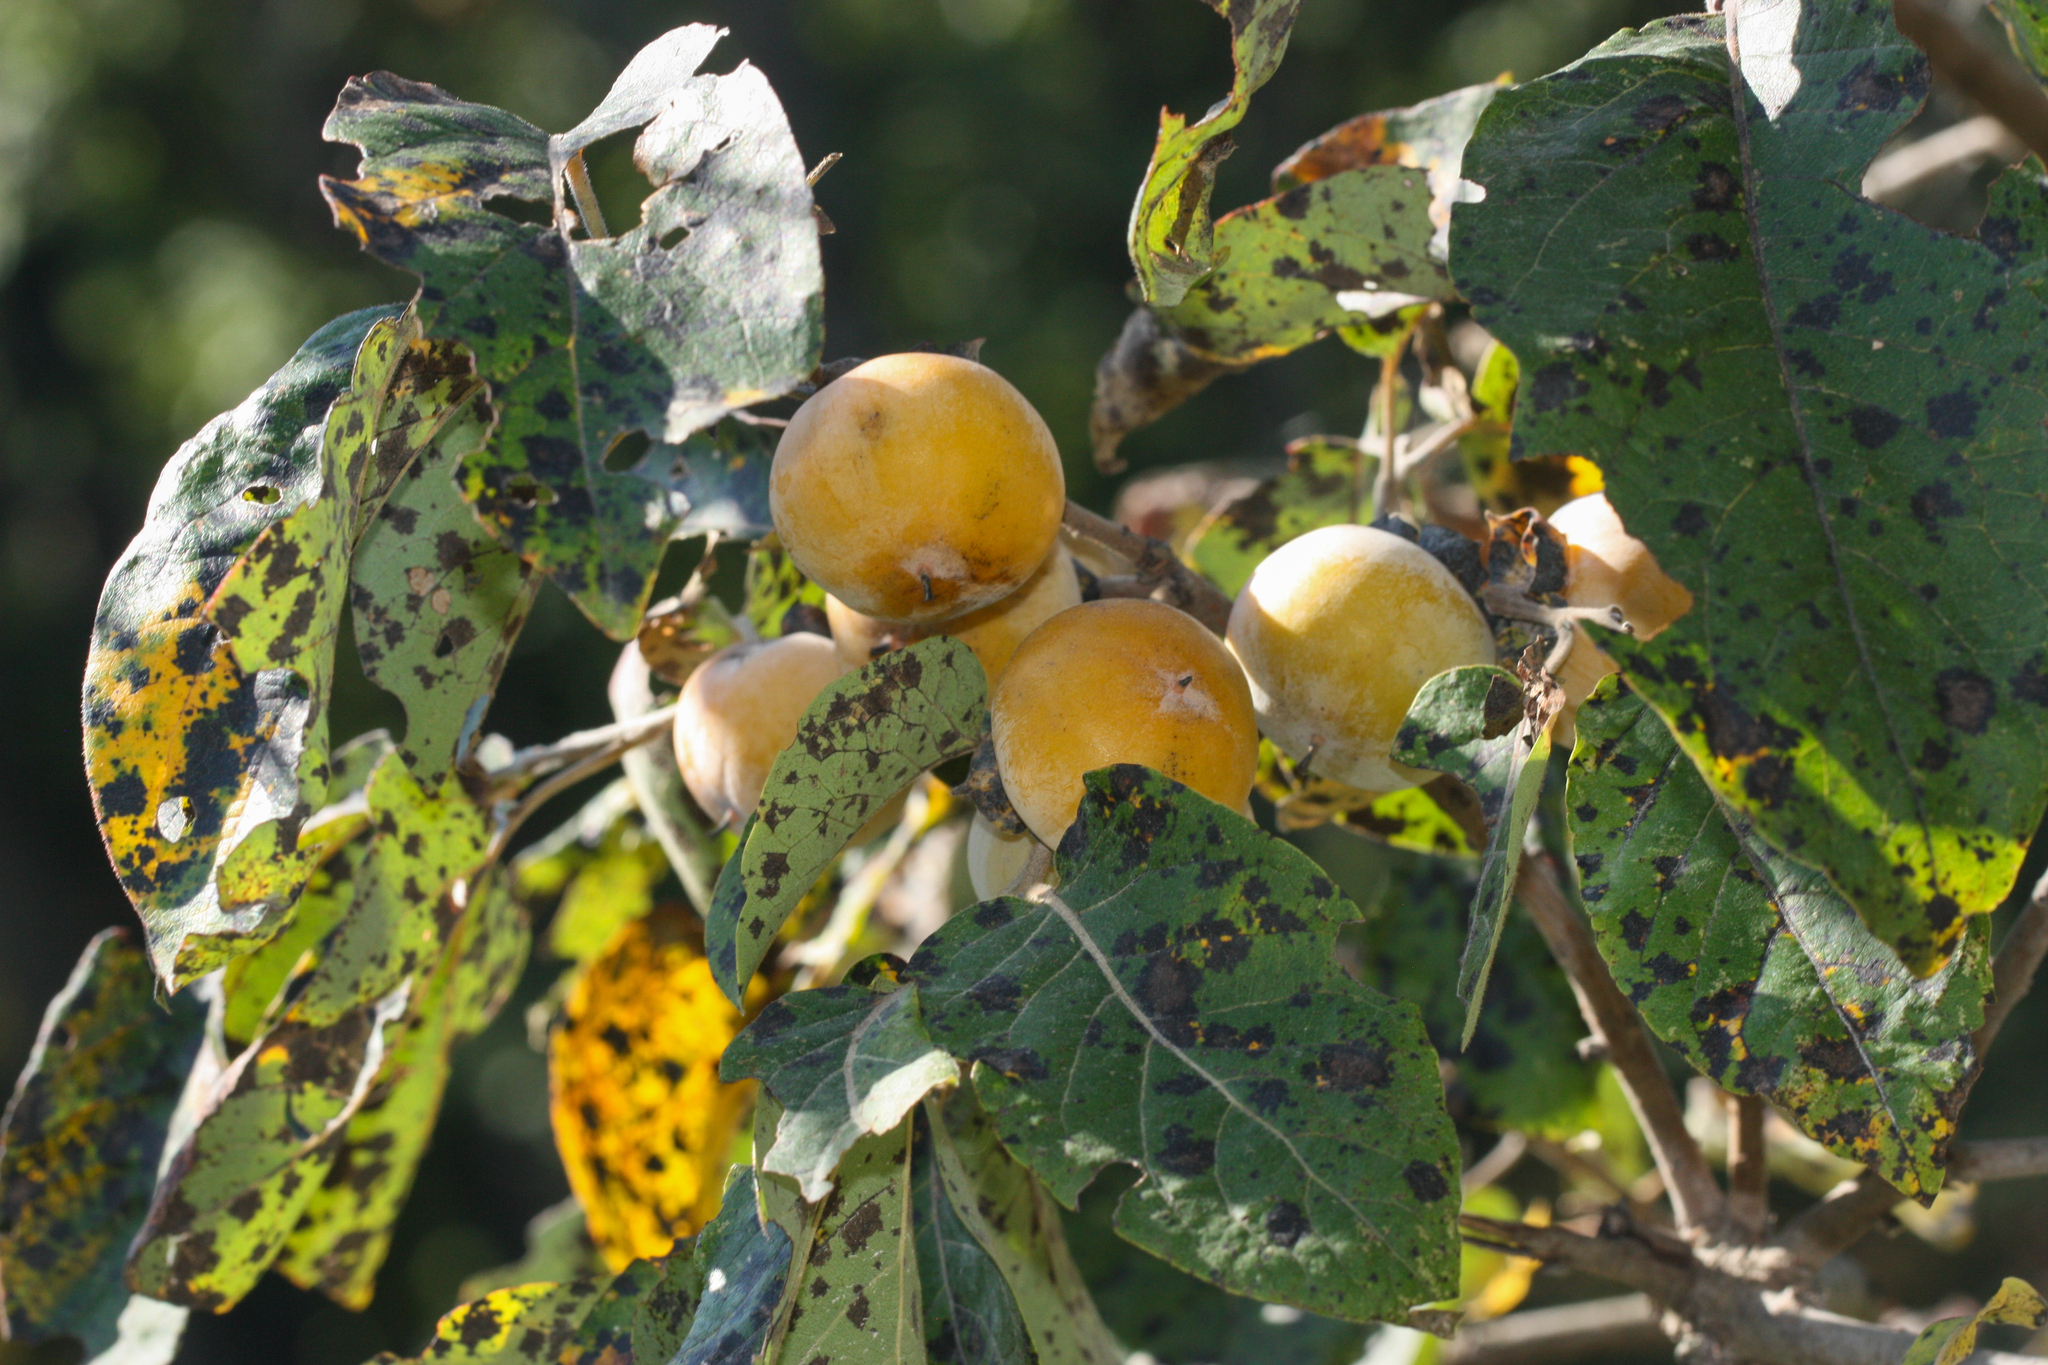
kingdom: Plantae
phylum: Tracheophyta
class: Magnoliopsida
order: Ericales
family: Ebenaceae
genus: Diospyros
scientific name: Diospyros virginiana
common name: Persimmon
